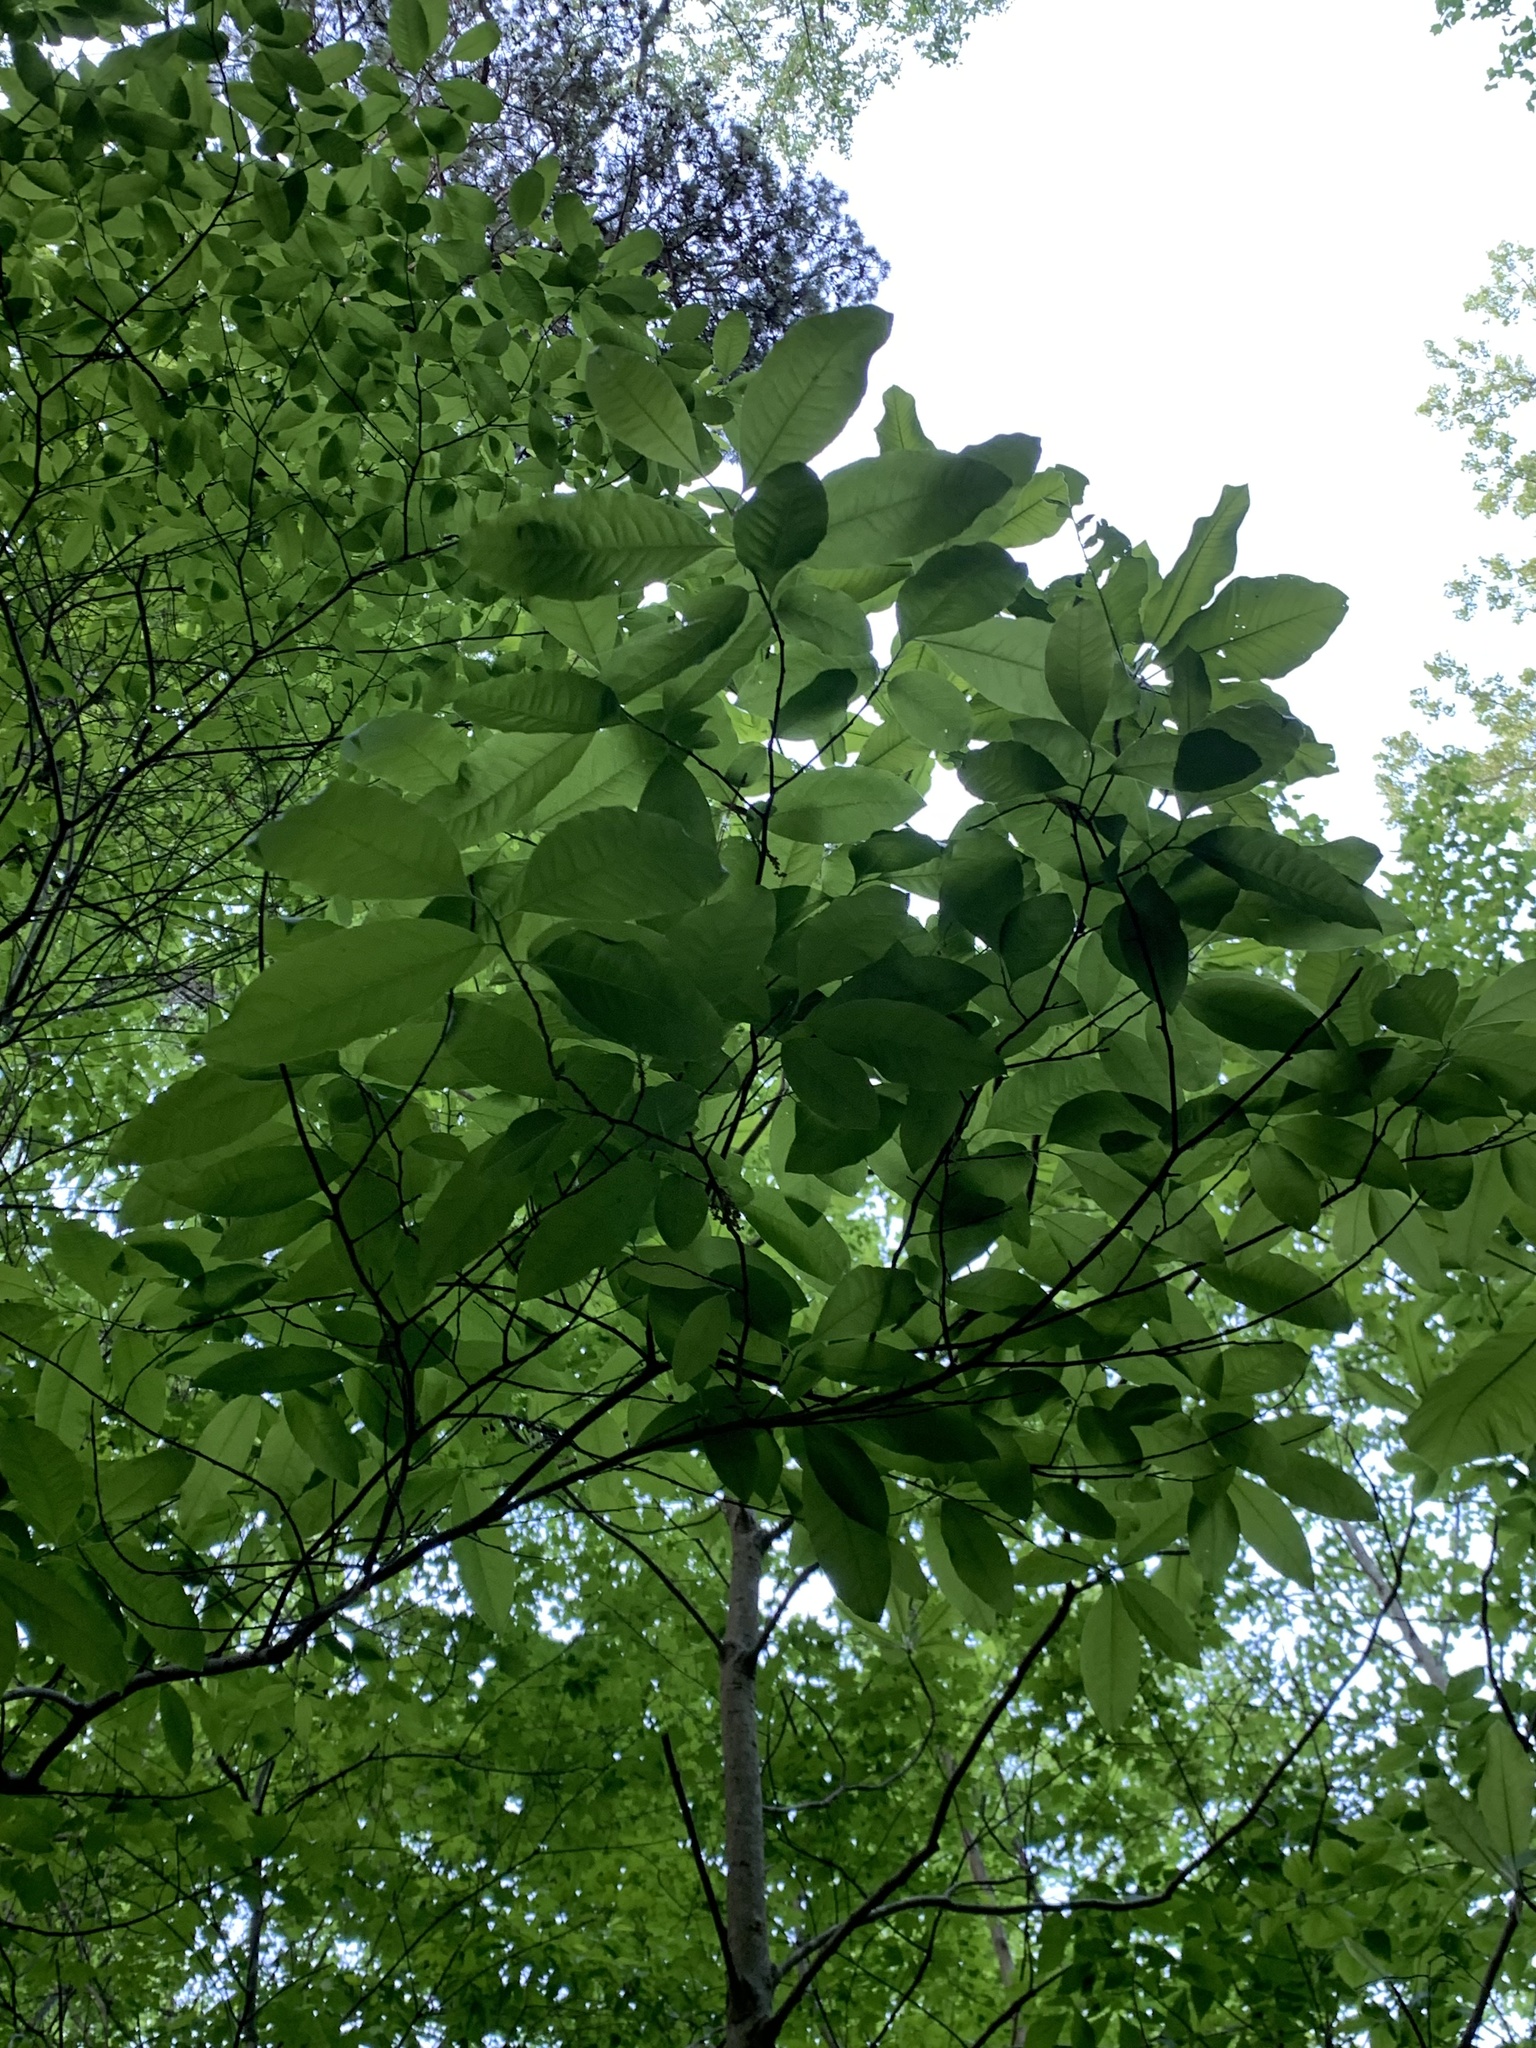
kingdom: Plantae
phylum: Tracheophyta
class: Magnoliopsida
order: Ericales
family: Ericaceae
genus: Oxydendrum
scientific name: Oxydendrum arboreum
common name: Sourwood
